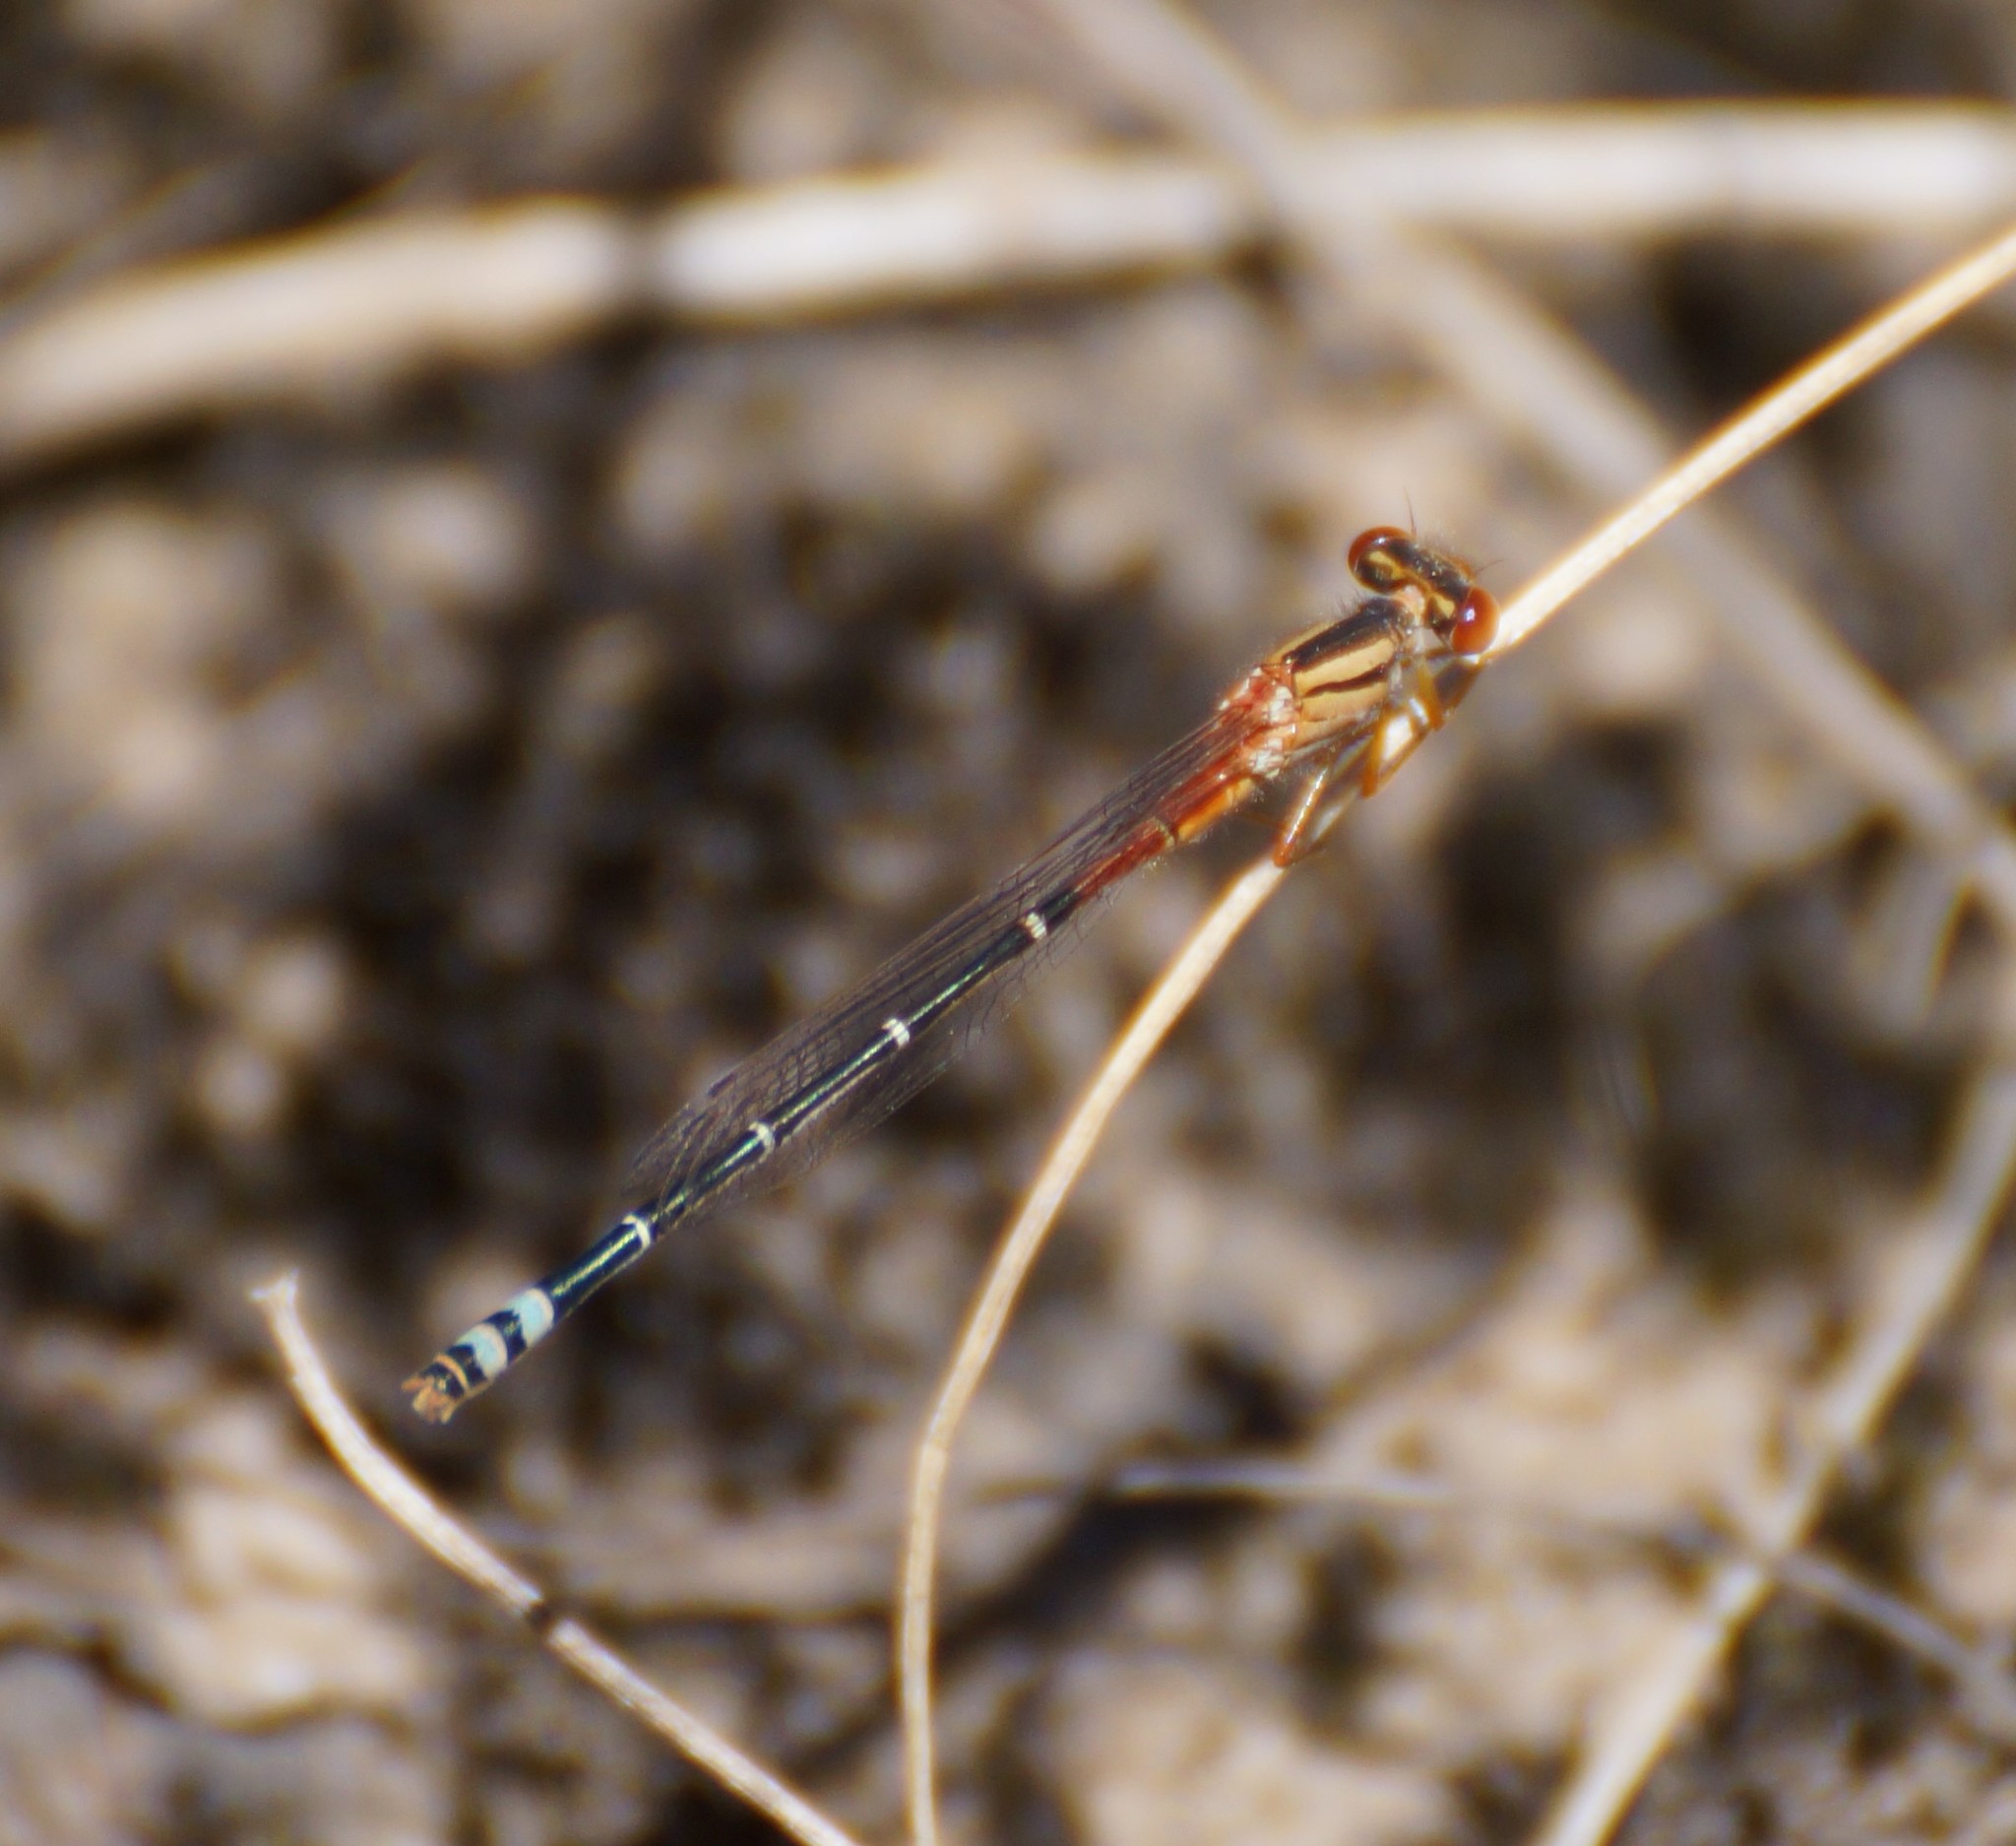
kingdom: Animalia
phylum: Arthropoda
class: Insecta
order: Odonata
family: Coenagrionidae
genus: Xanthagrion
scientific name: Xanthagrion erythroneurum
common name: Red and blue damsel
